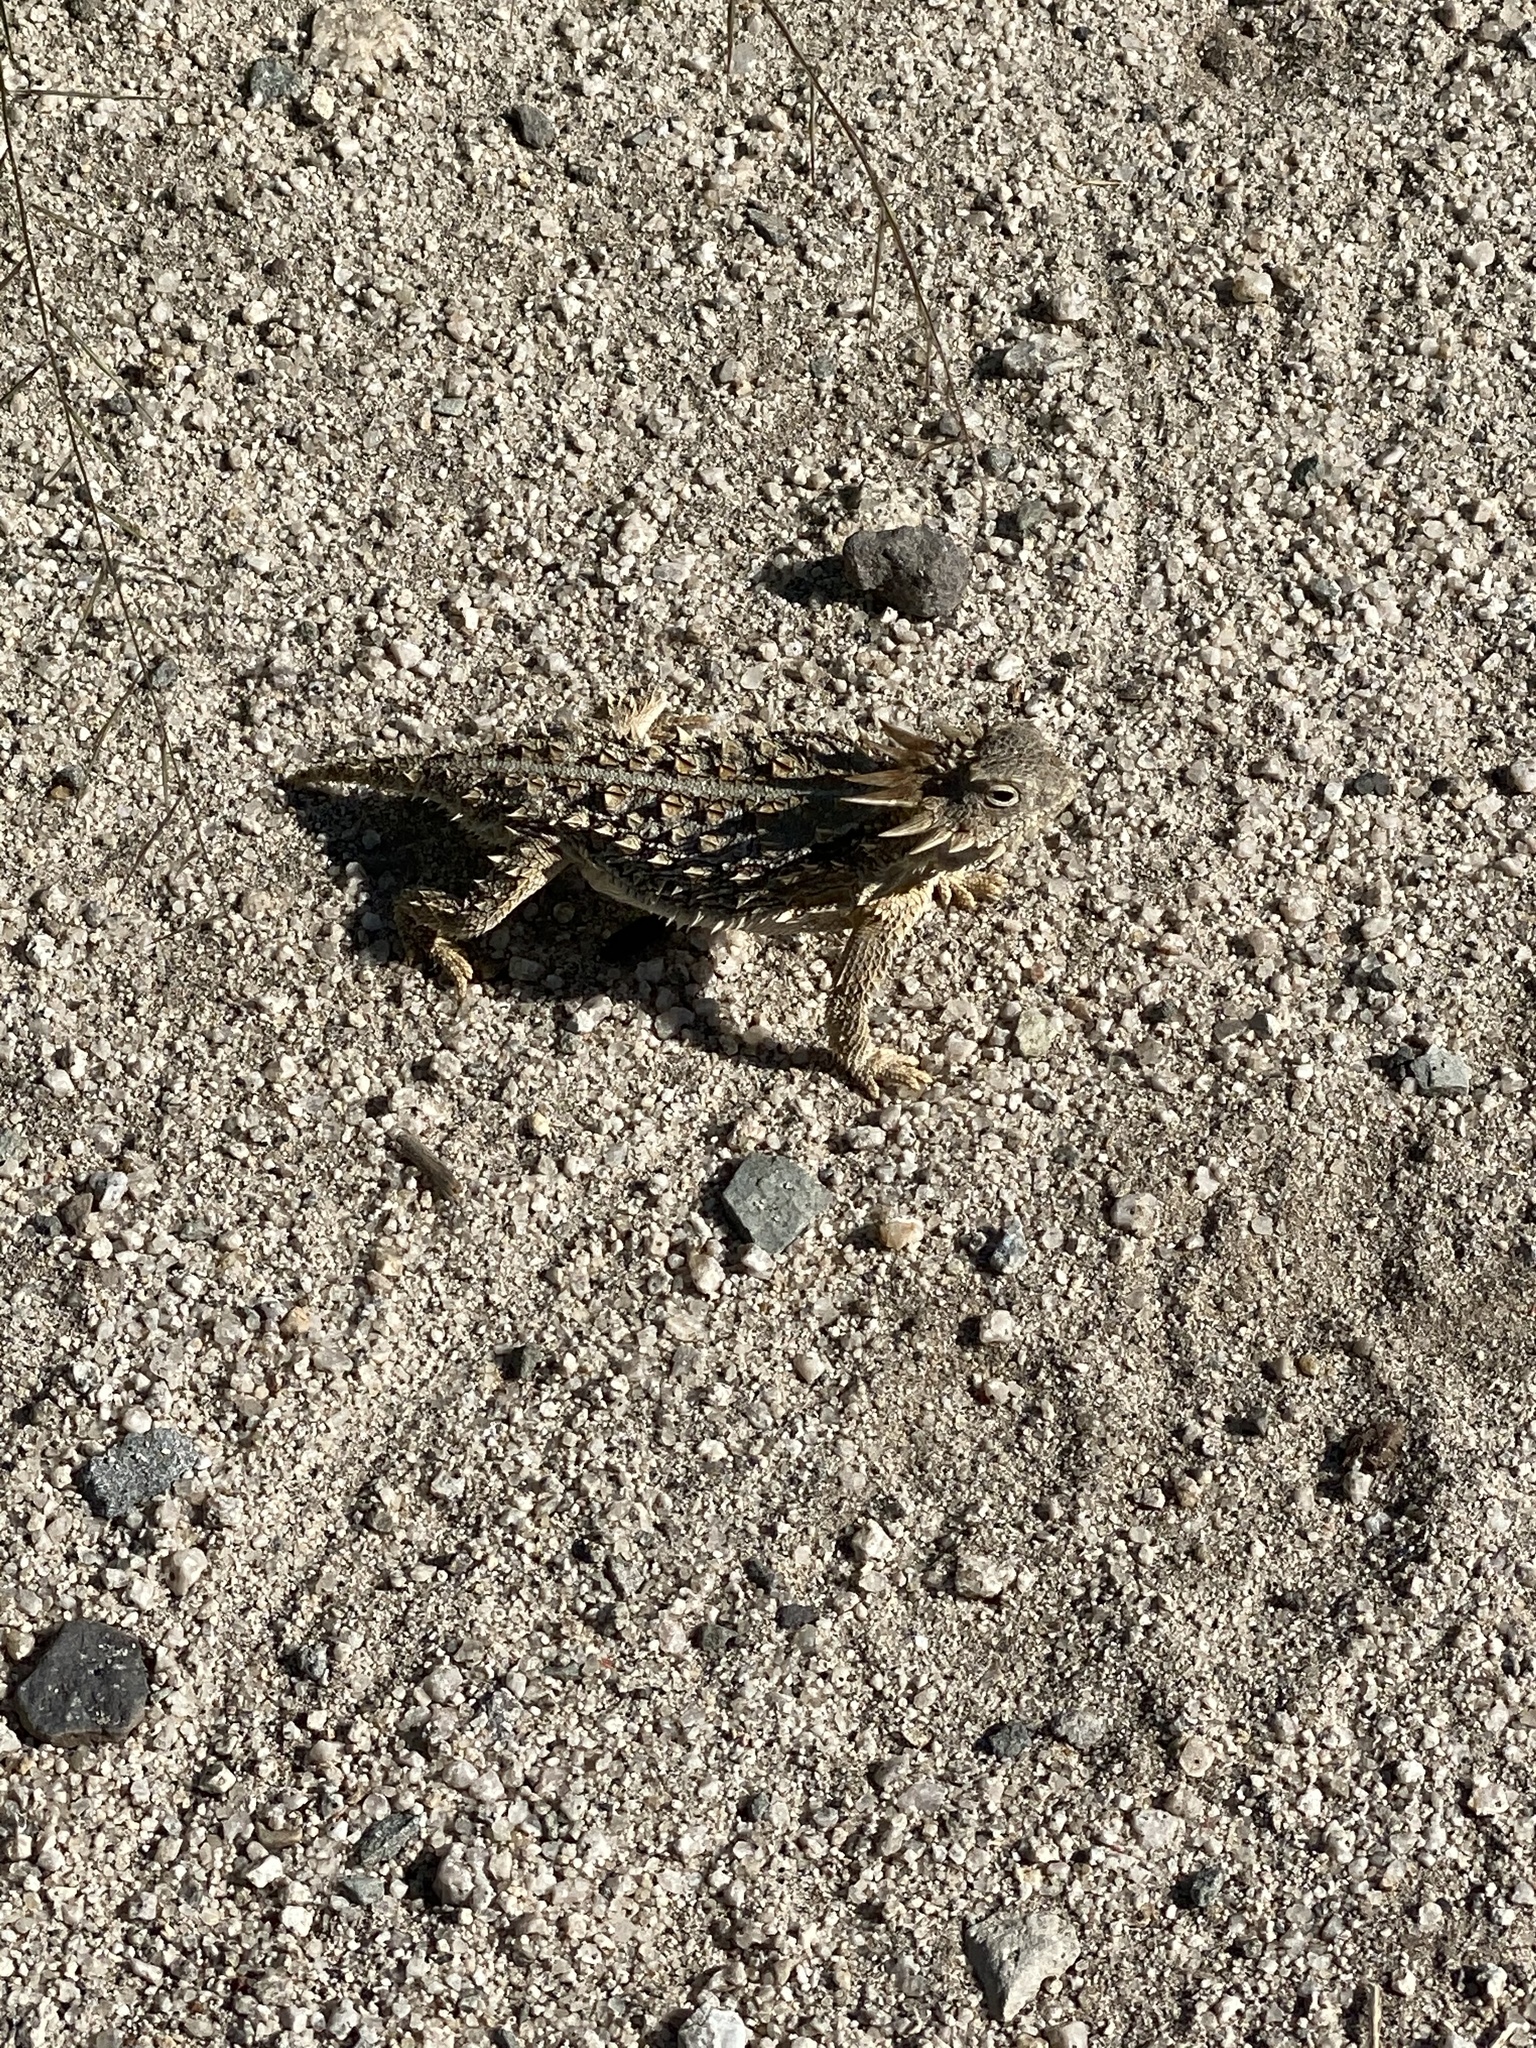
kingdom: Animalia
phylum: Chordata
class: Squamata
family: Phrynosomatidae
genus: Phrynosoma
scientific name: Phrynosoma solare
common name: Regal horned lizard
